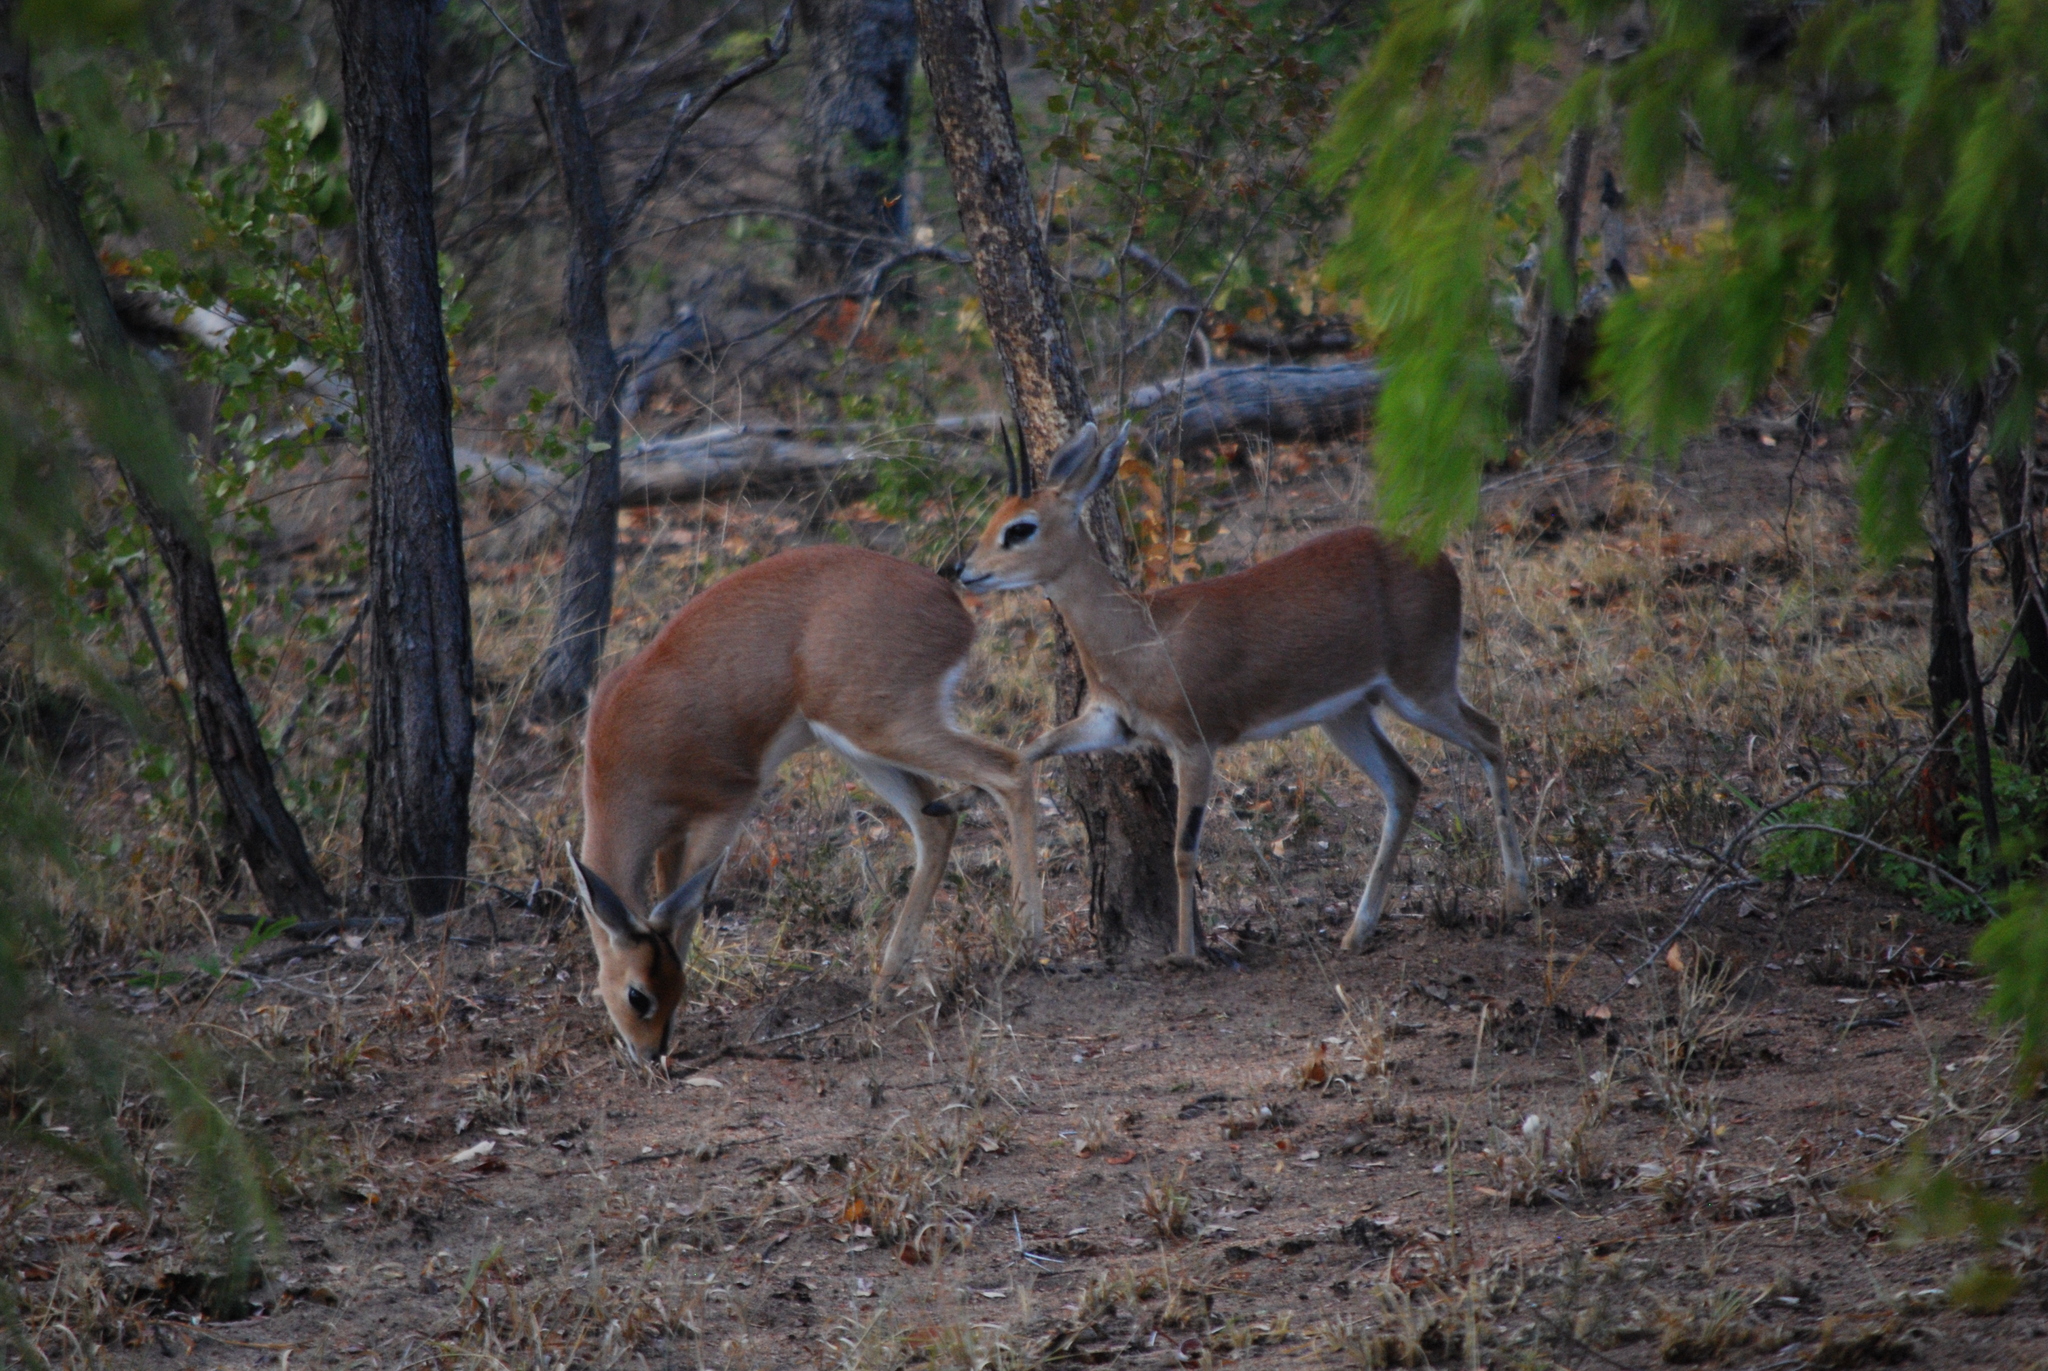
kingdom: Animalia
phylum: Chordata
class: Mammalia
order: Artiodactyla
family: Bovidae
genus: Raphicerus
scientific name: Raphicerus campestris
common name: Steenbok
